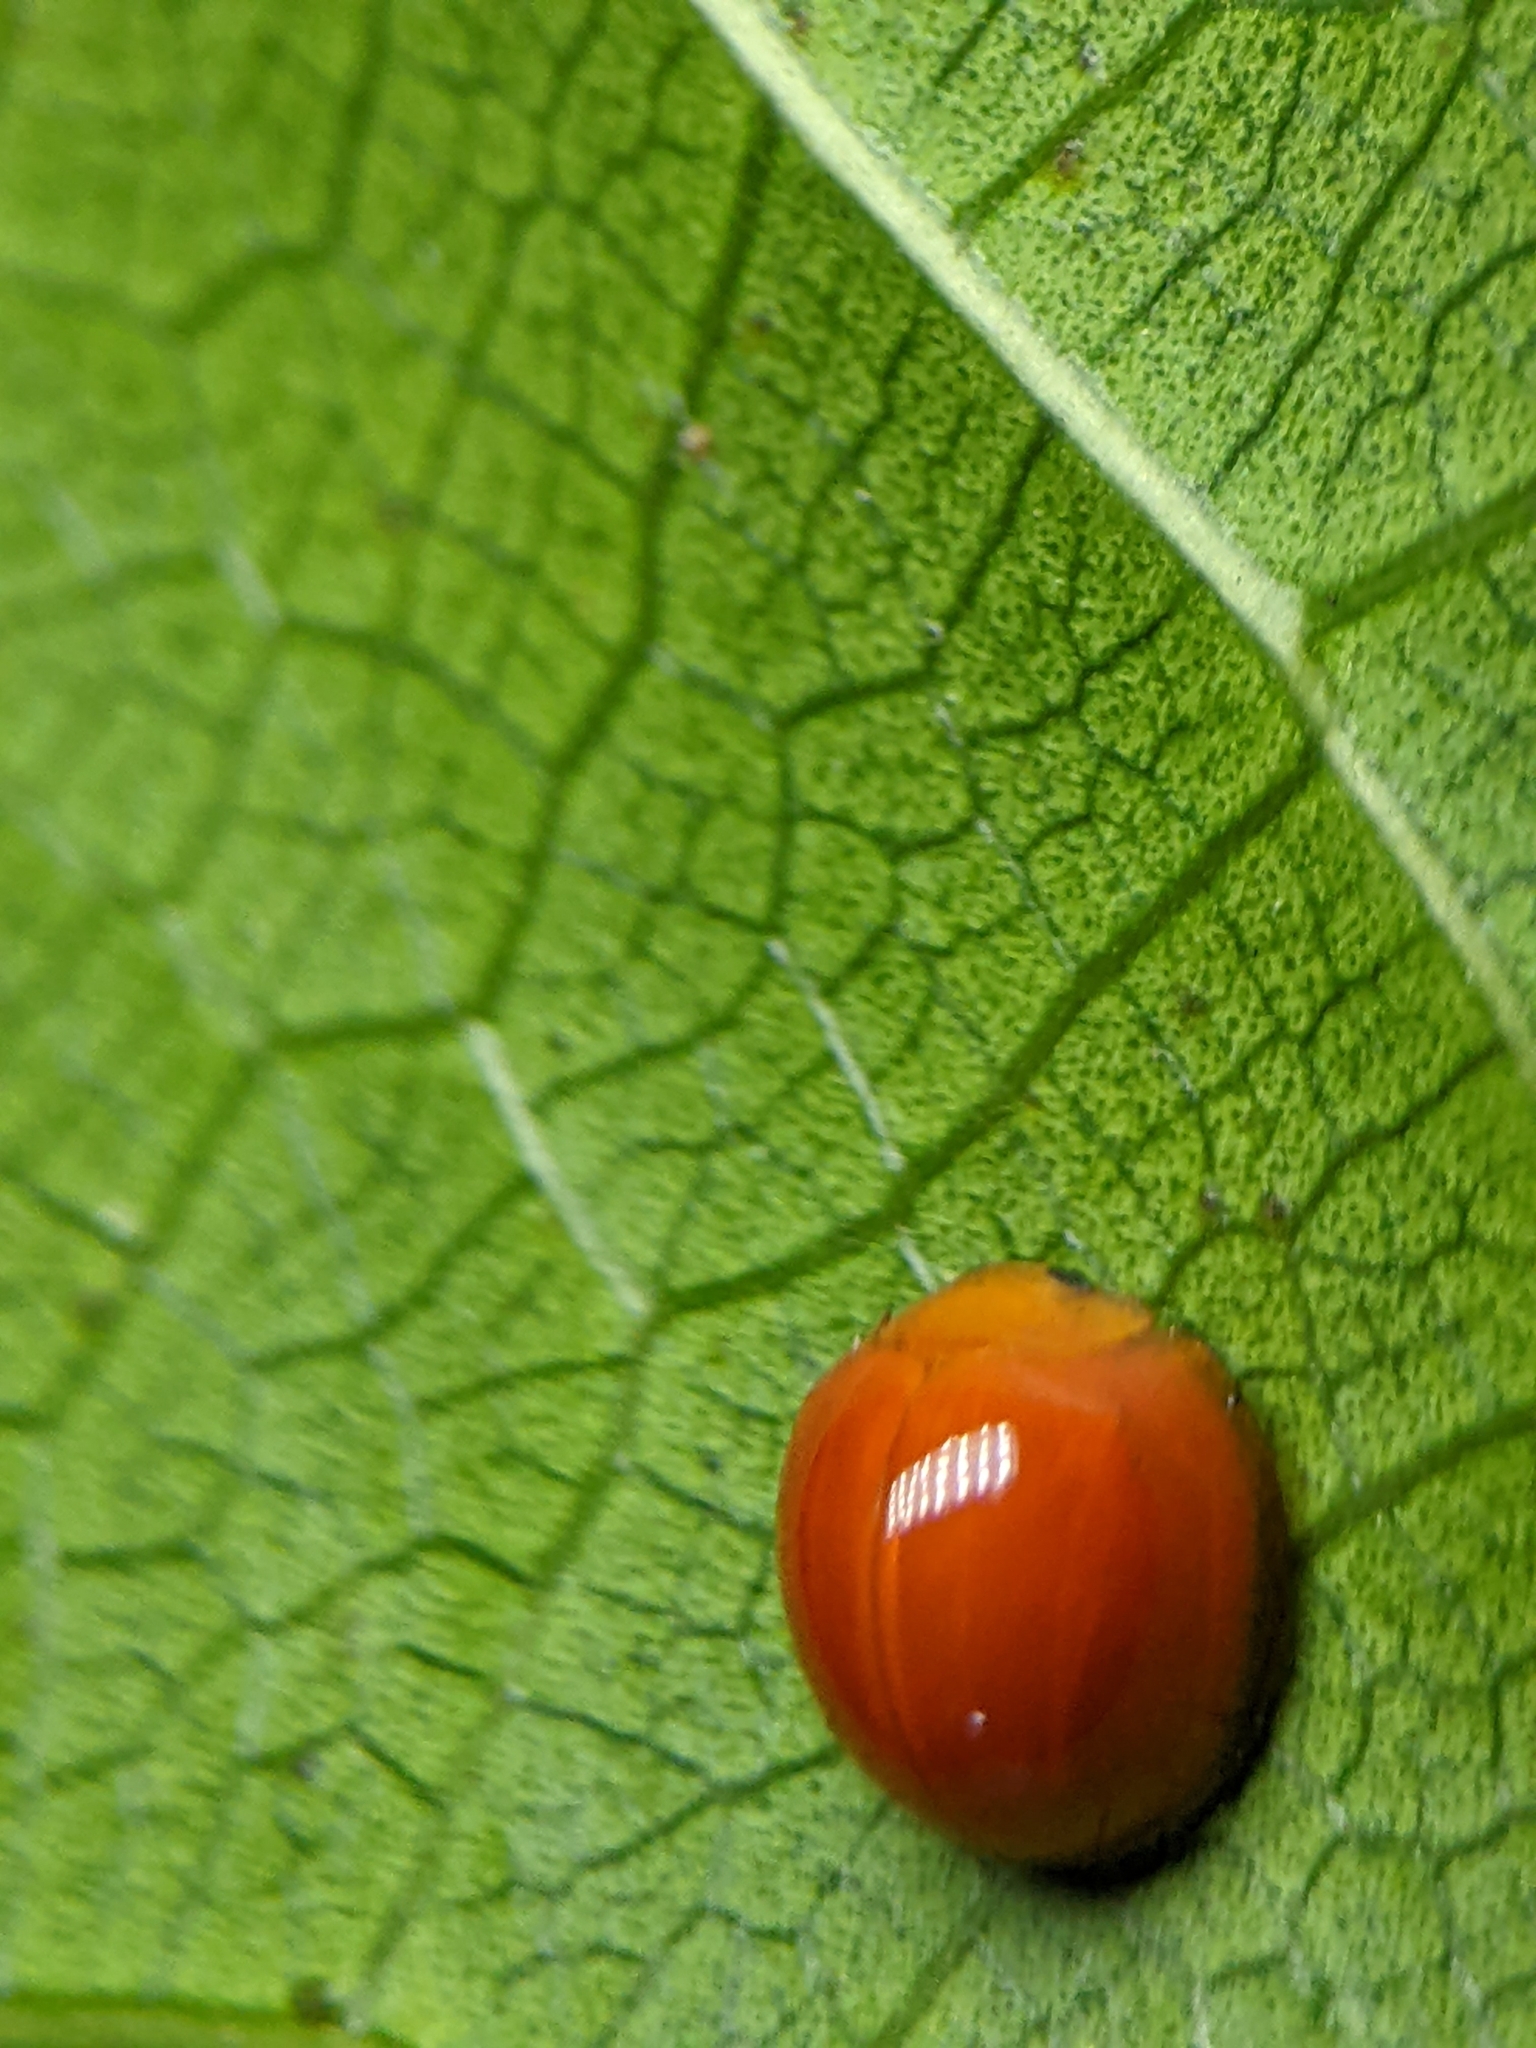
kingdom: Animalia
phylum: Arthropoda
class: Insecta
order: Coleoptera
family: Coccinellidae
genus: Chilocorus
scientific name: Chilocorus circumdatus
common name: Lady beetle
